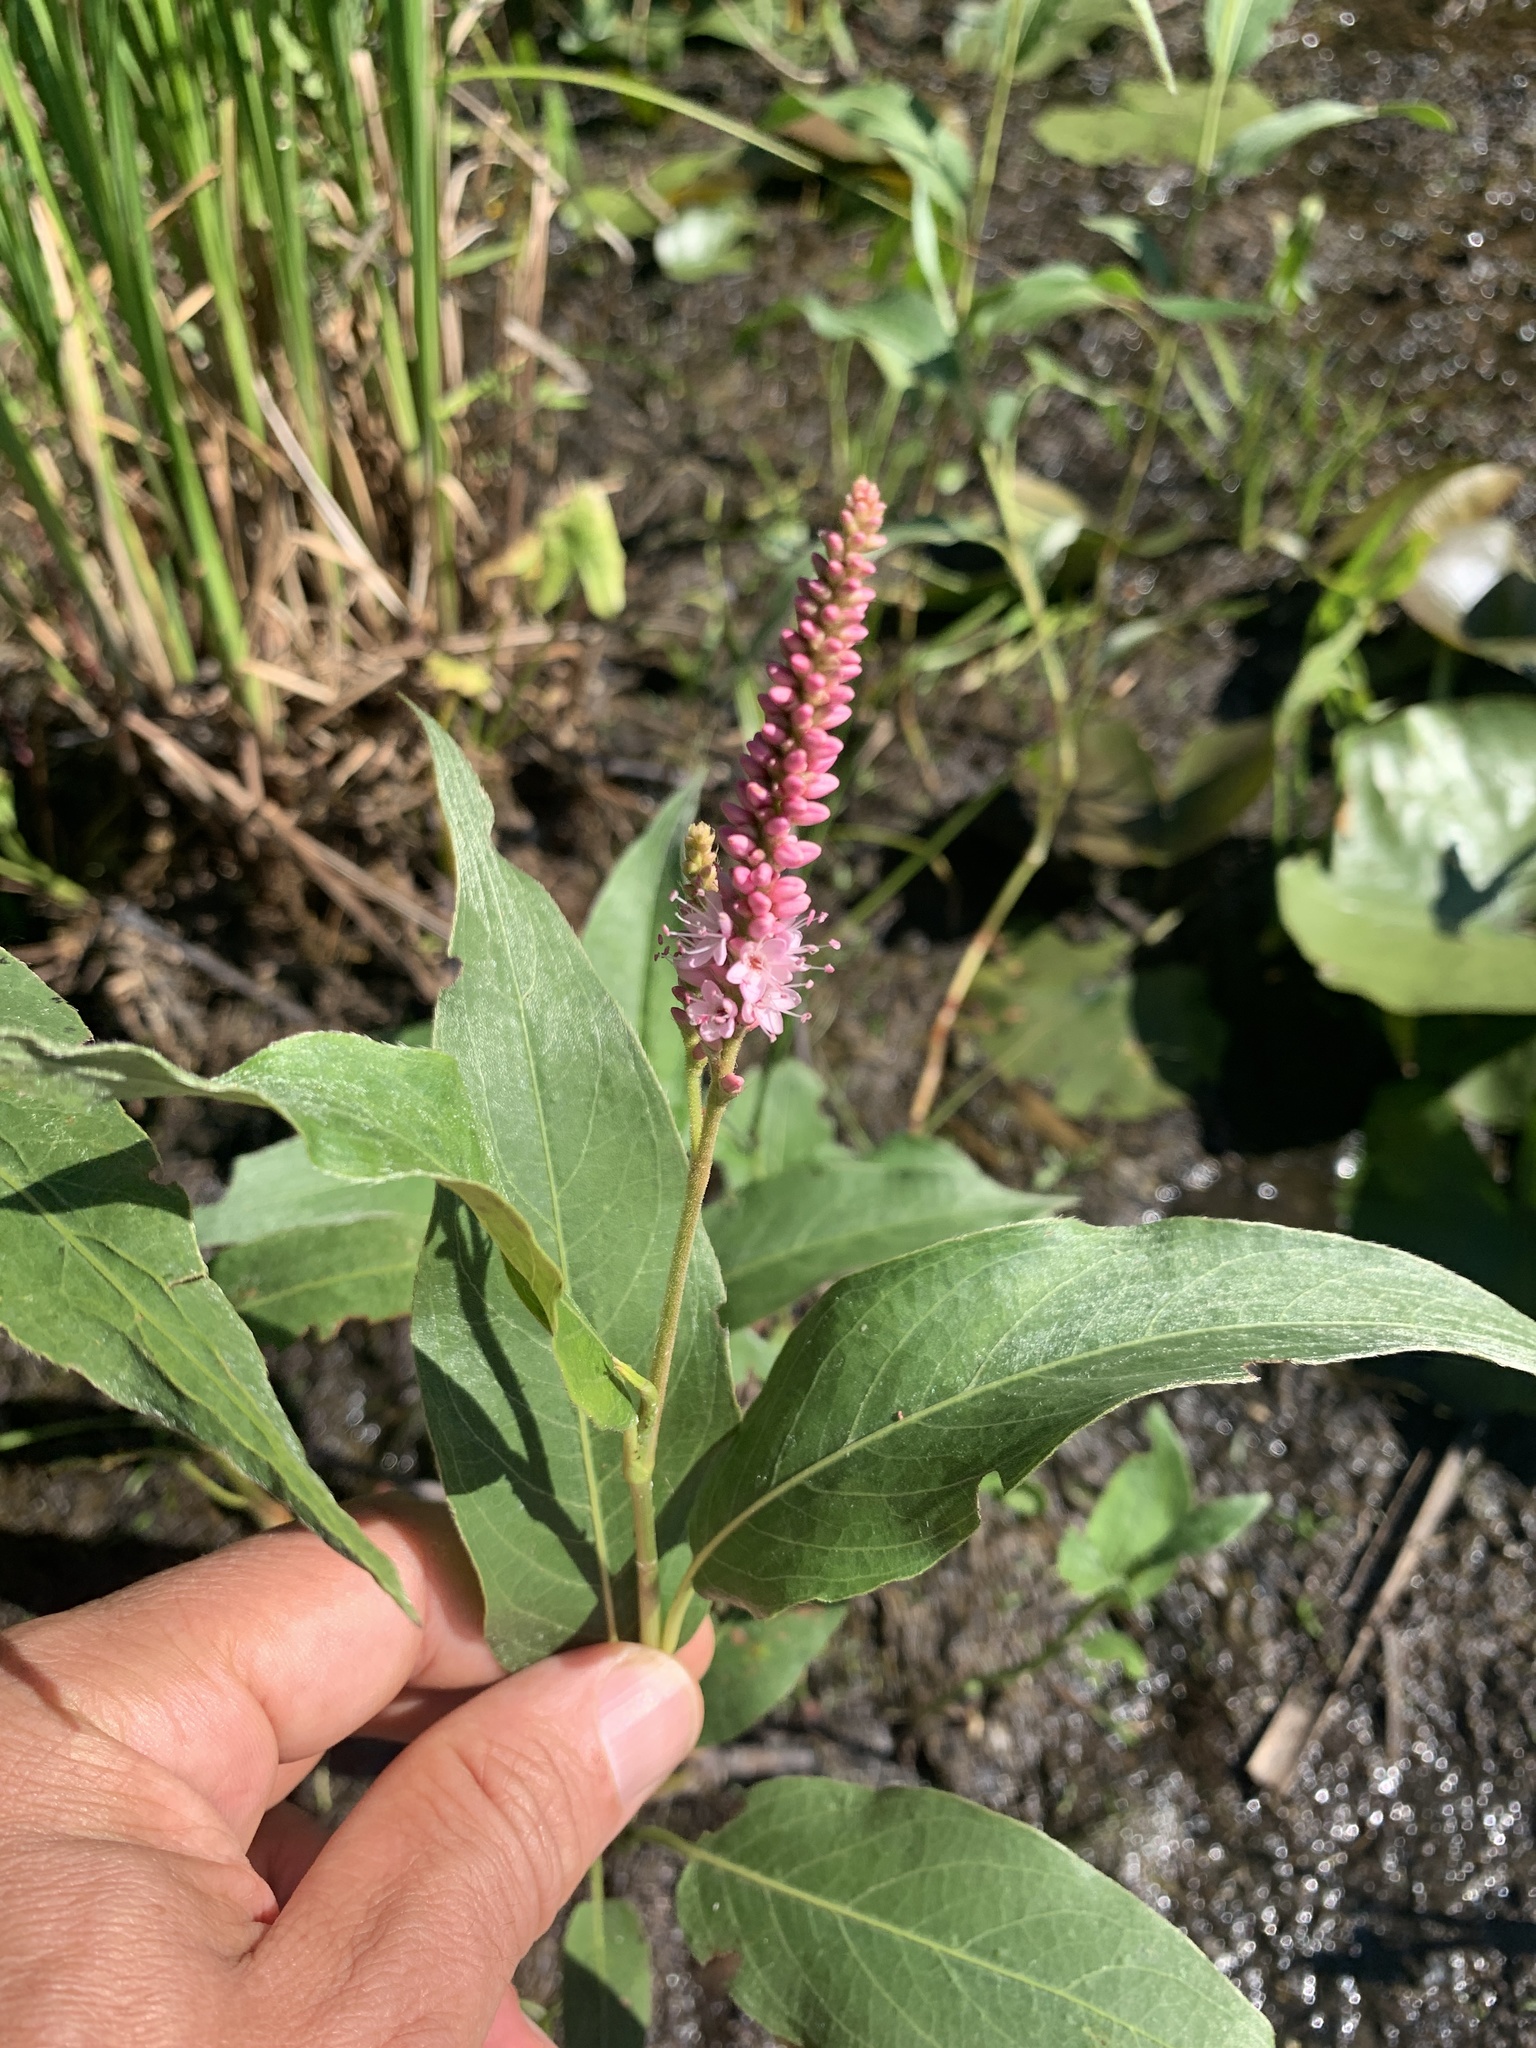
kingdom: Plantae
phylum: Tracheophyta
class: Magnoliopsida
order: Caryophyllales
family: Polygonaceae
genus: Persicaria
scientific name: Persicaria amphibia
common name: Amphibious bistort
